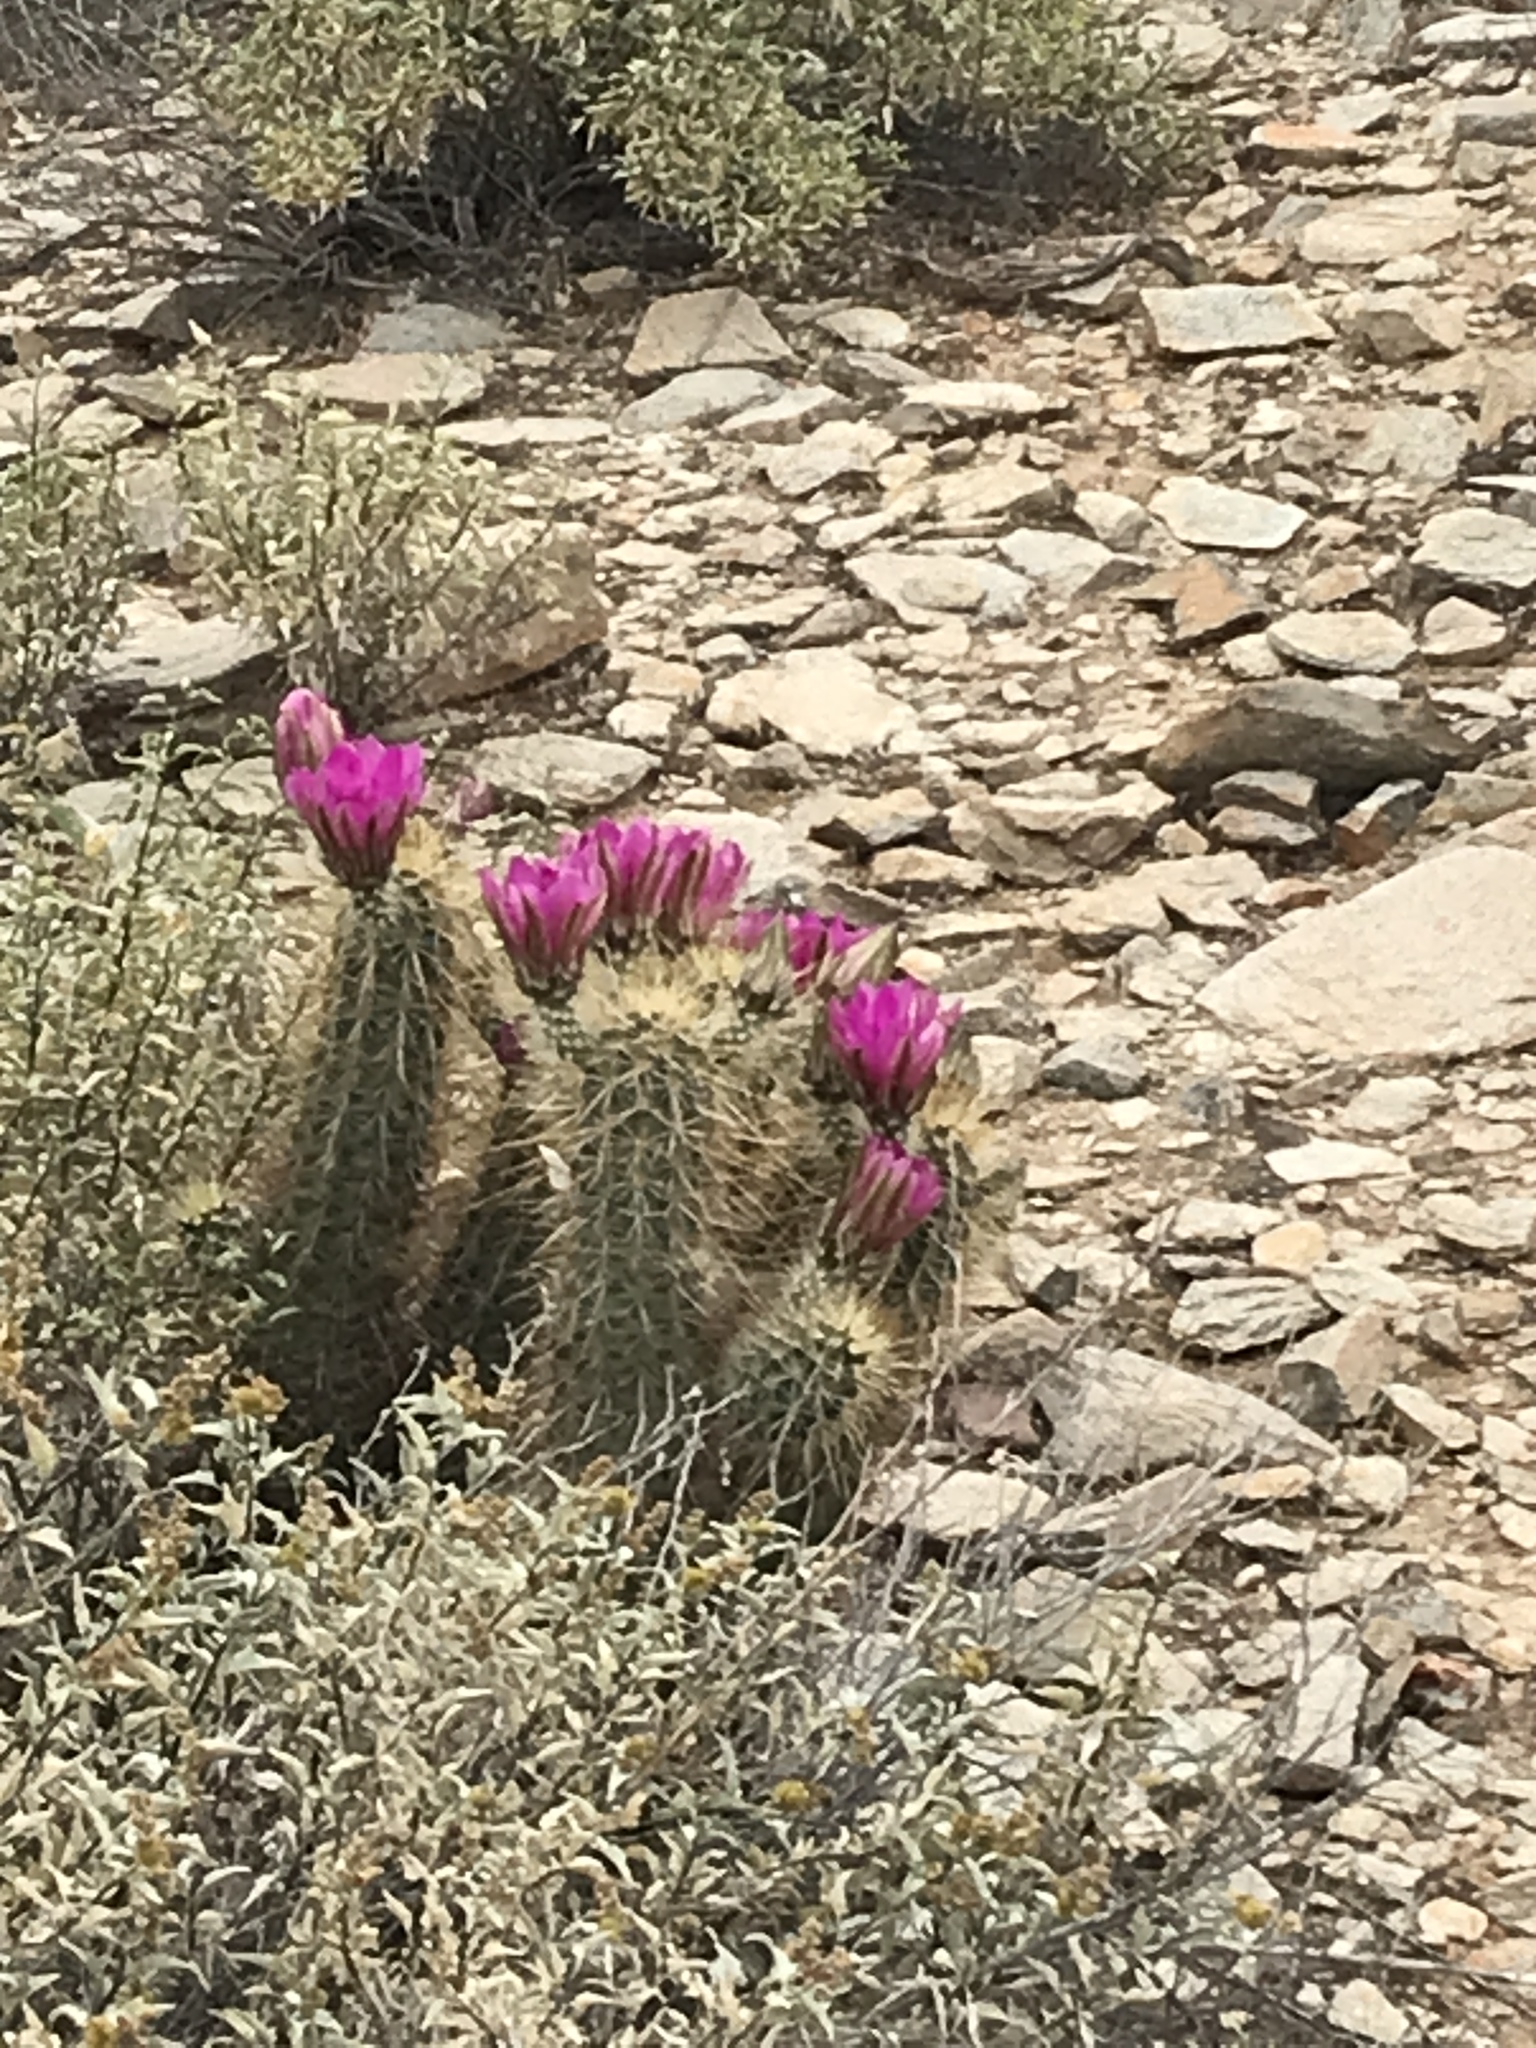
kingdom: Plantae
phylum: Tracheophyta
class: Magnoliopsida
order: Caryophyllales
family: Cactaceae
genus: Echinocereus
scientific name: Echinocereus engelmannii
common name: Engelmann's hedgehog cactus
